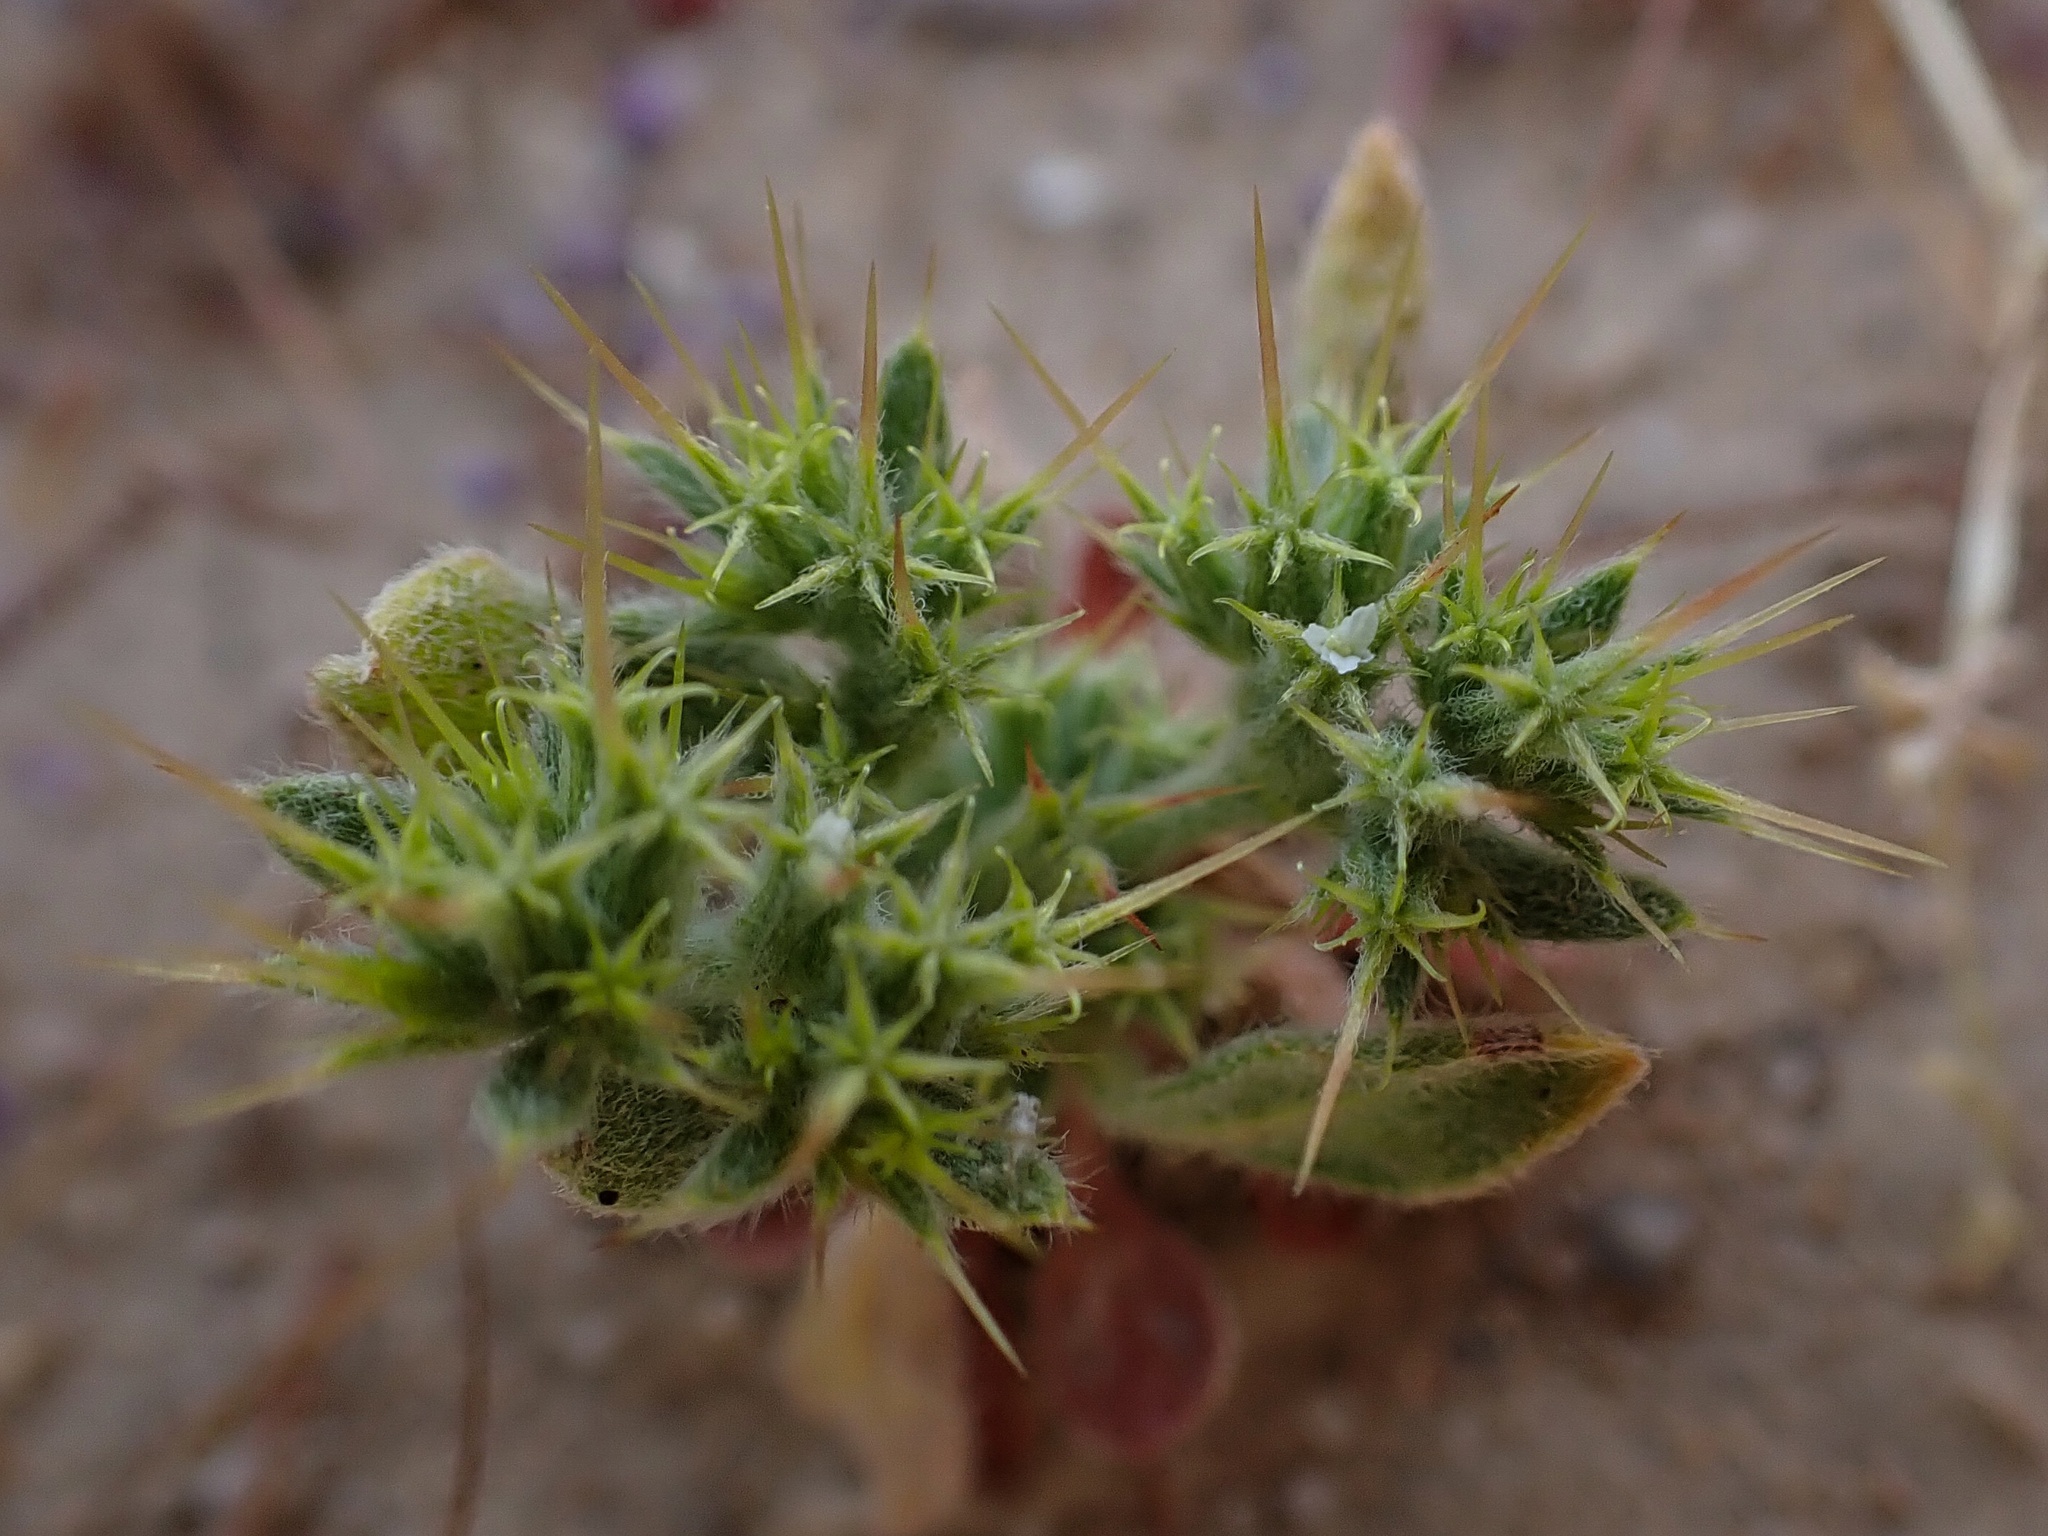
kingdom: Plantae
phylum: Tracheophyta
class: Magnoliopsida
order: Caryophyllales
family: Polygonaceae
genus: Chorizanthe
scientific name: Chorizanthe uniaristata
